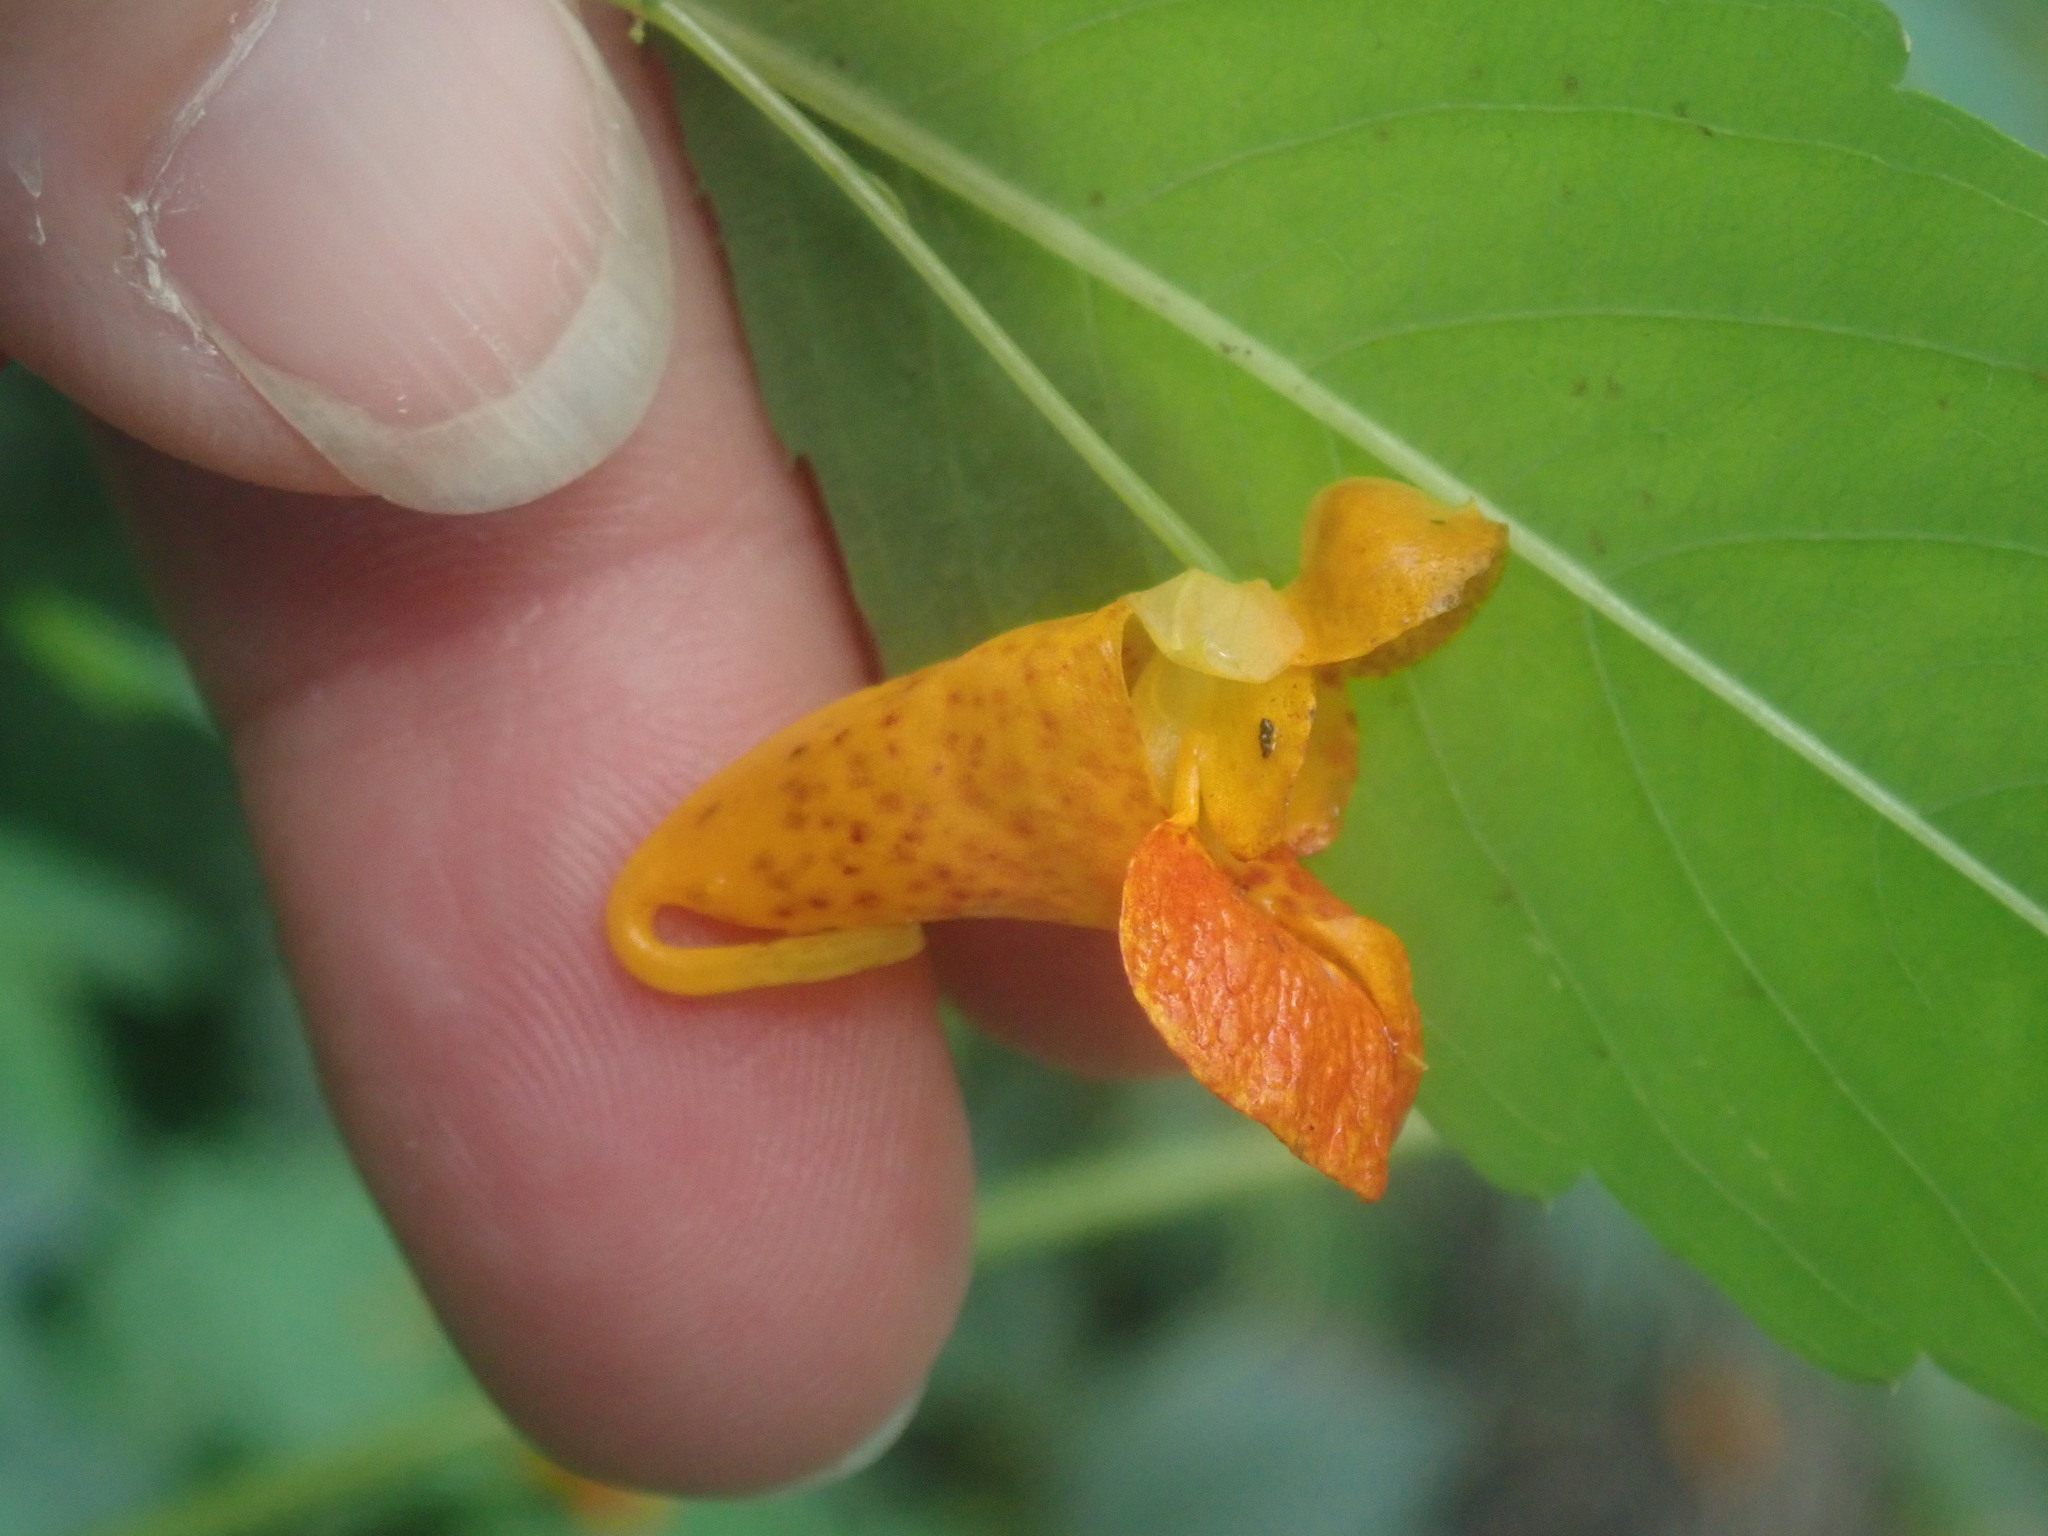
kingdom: Plantae
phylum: Tracheophyta
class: Magnoliopsida
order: Ericales
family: Balsaminaceae
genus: Impatiens
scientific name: Impatiens capensis
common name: Orange balsam
